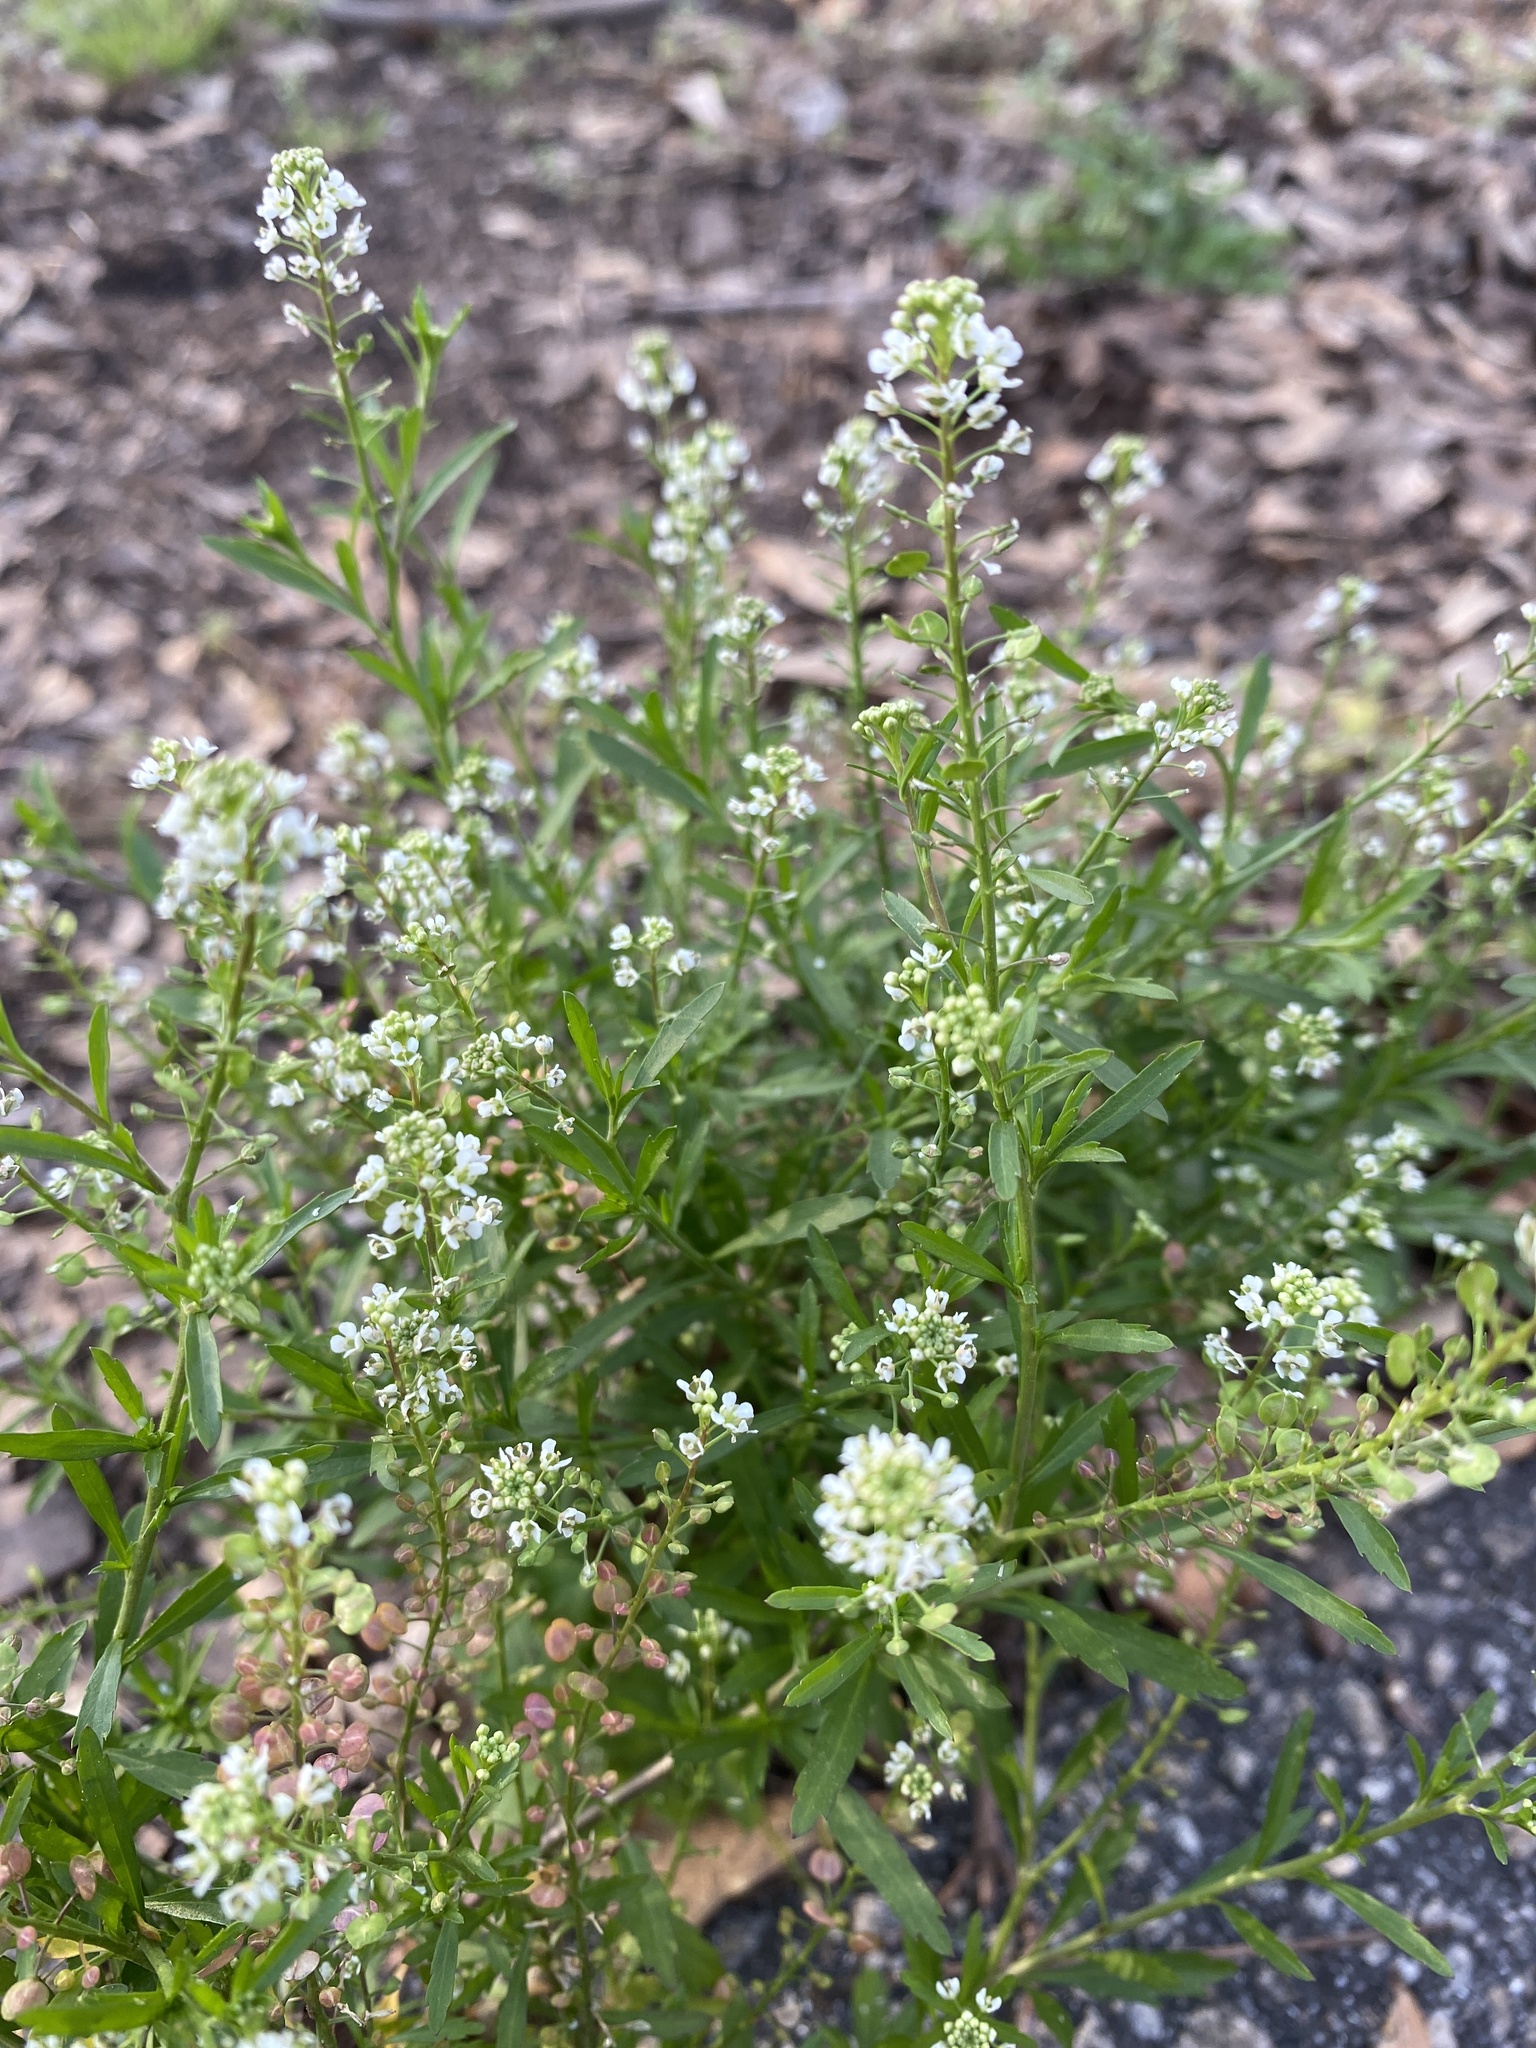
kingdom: Plantae
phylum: Tracheophyta
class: Magnoliopsida
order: Brassicales
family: Brassicaceae
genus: Lepidium
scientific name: Lepidium virginicum
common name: Least pepperwort
